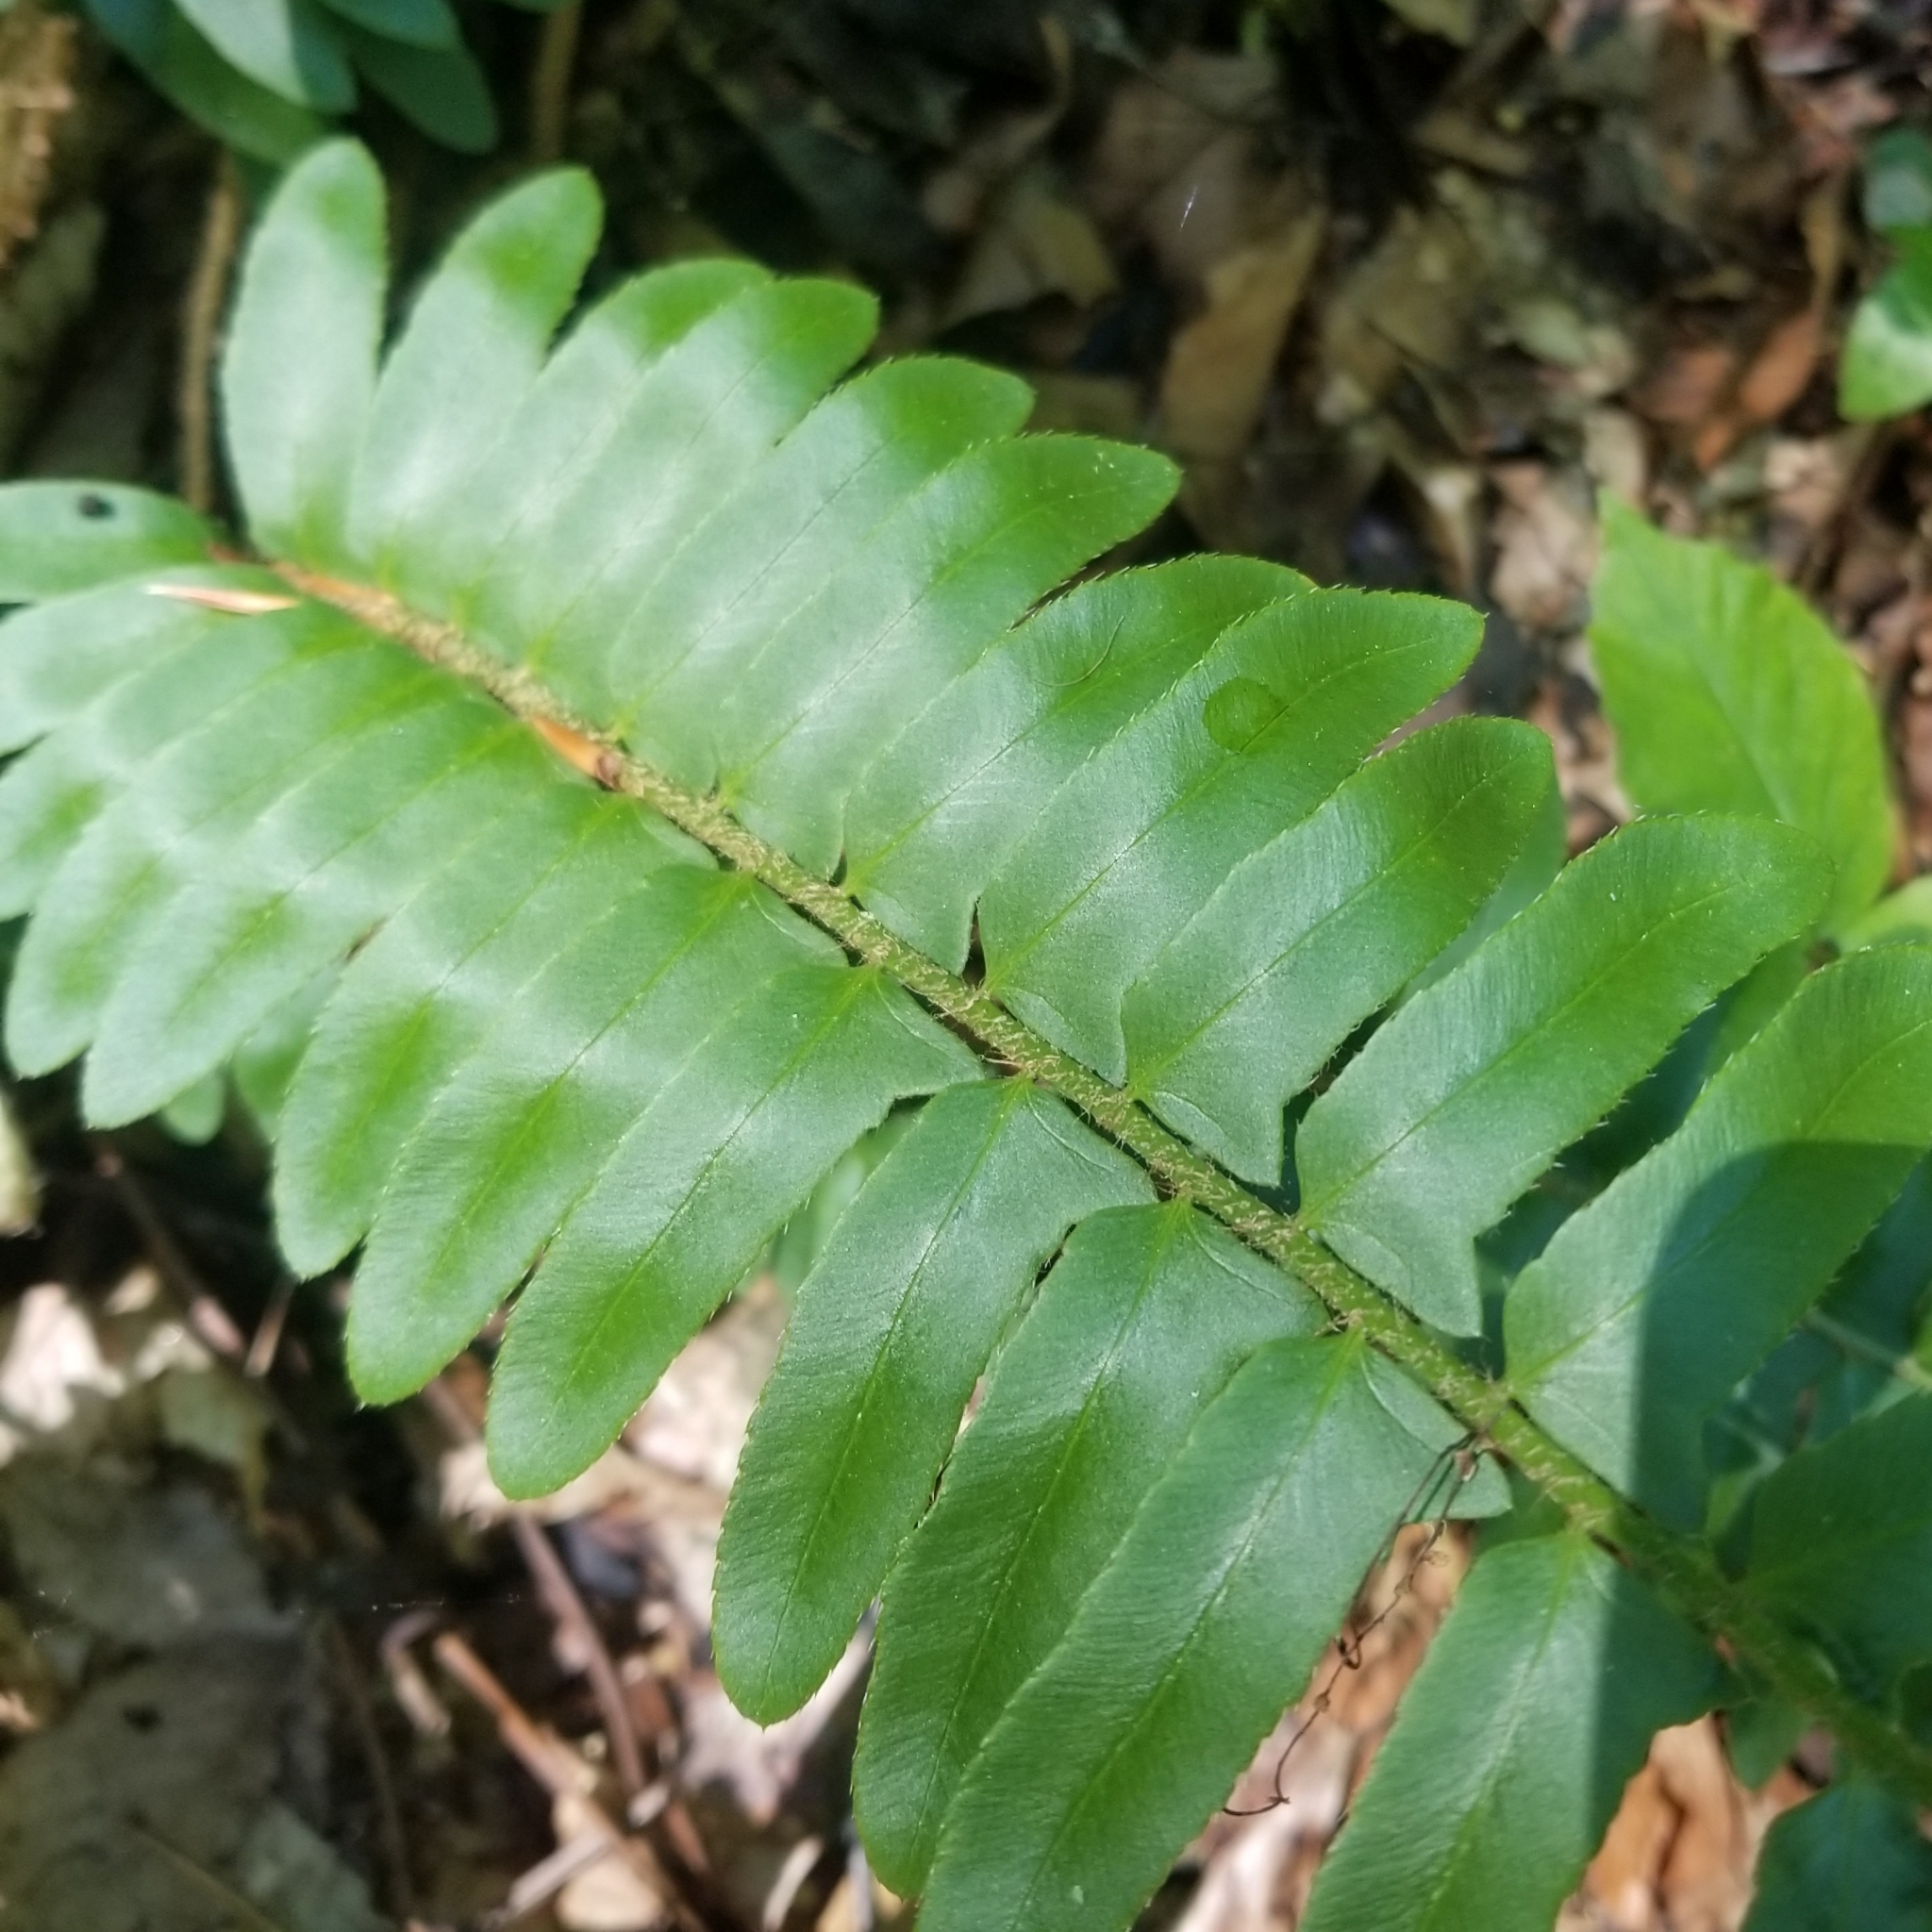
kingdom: Plantae
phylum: Tracheophyta
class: Polypodiopsida
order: Polypodiales
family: Dryopteridaceae
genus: Polystichum
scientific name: Polystichum acrostichoides
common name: Christmas fern
